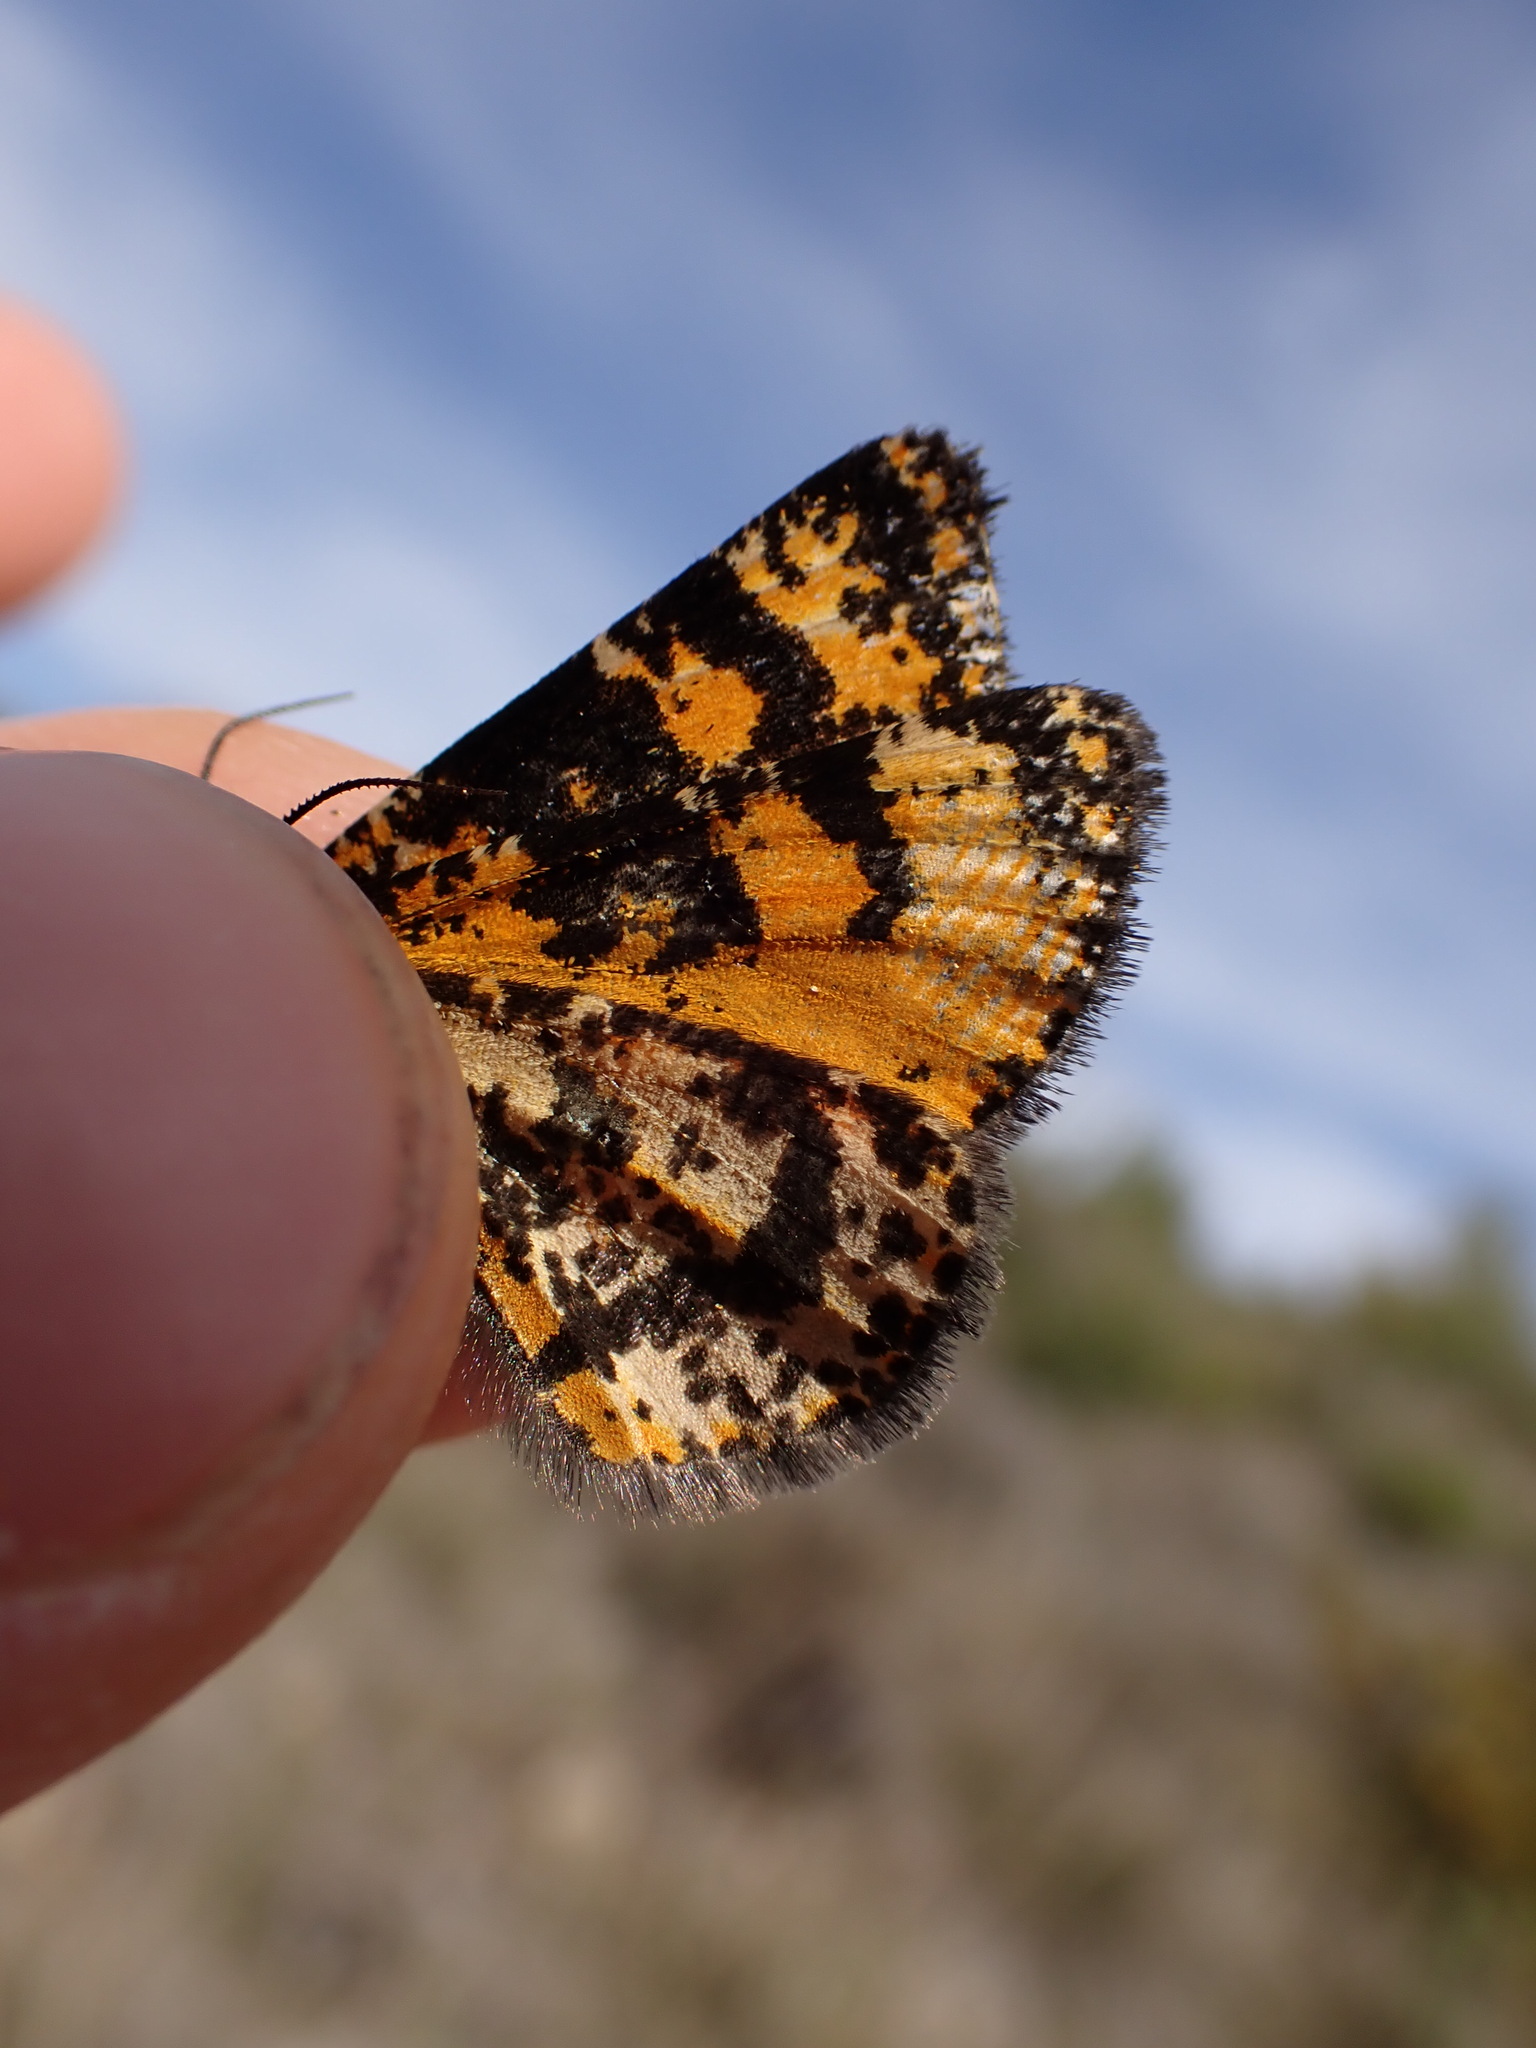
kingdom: Animalia
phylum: Arthropoda
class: Insecta
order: Lepidoptera
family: Geometridae
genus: Eurranthis
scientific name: Eurranthis plummistaria
